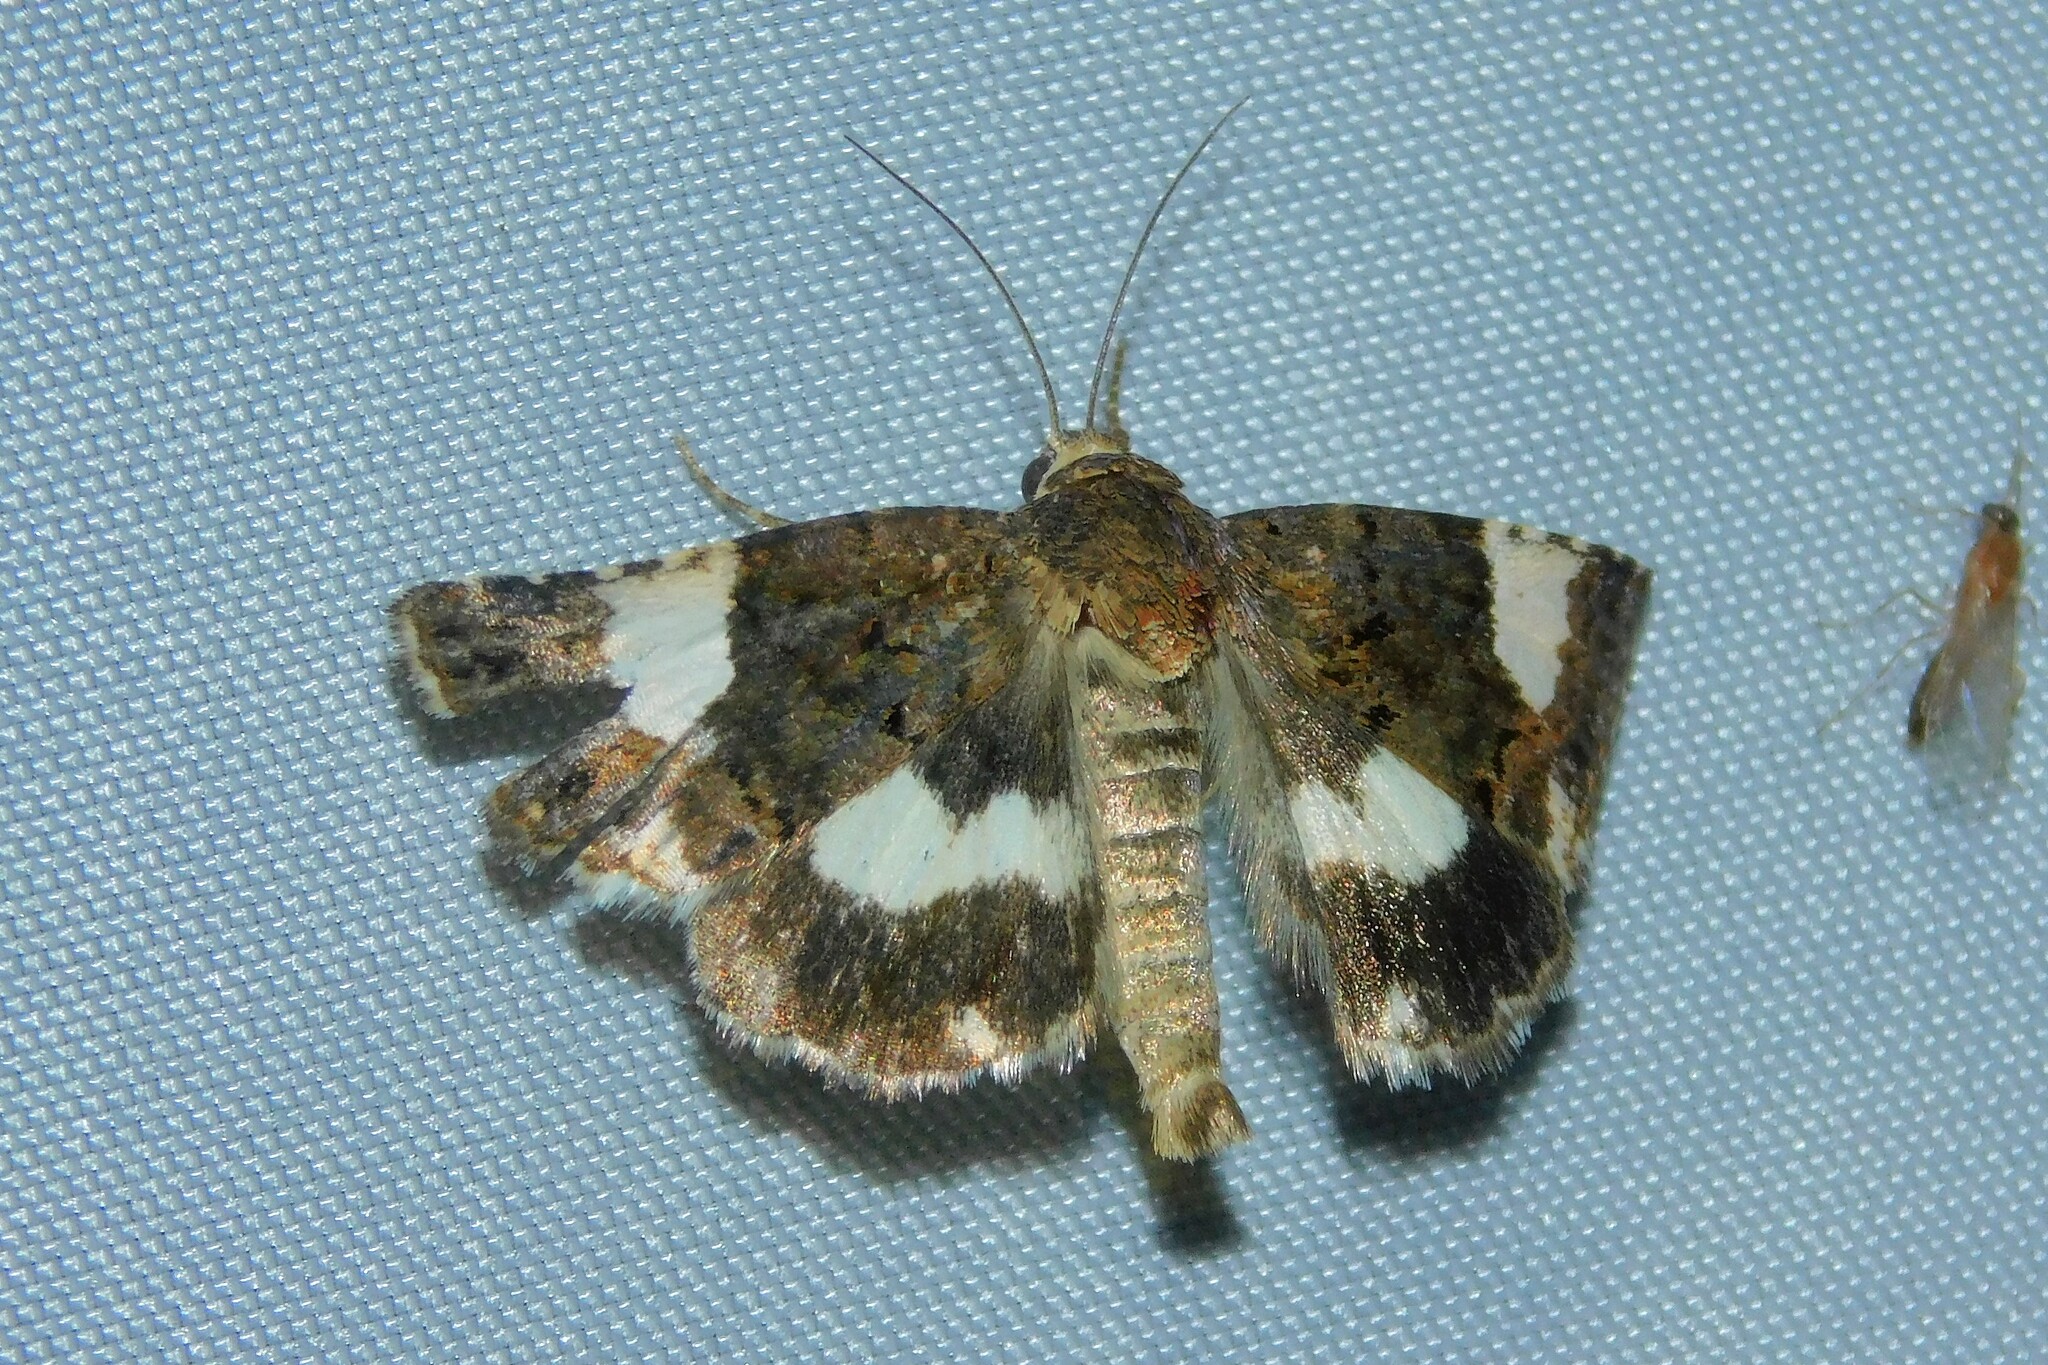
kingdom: Animalia
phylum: Arthropoda
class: Insecta
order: Lepidoptera
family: Erebidae
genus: Tyta
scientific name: Tyta luctuosa
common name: Four-spotted
